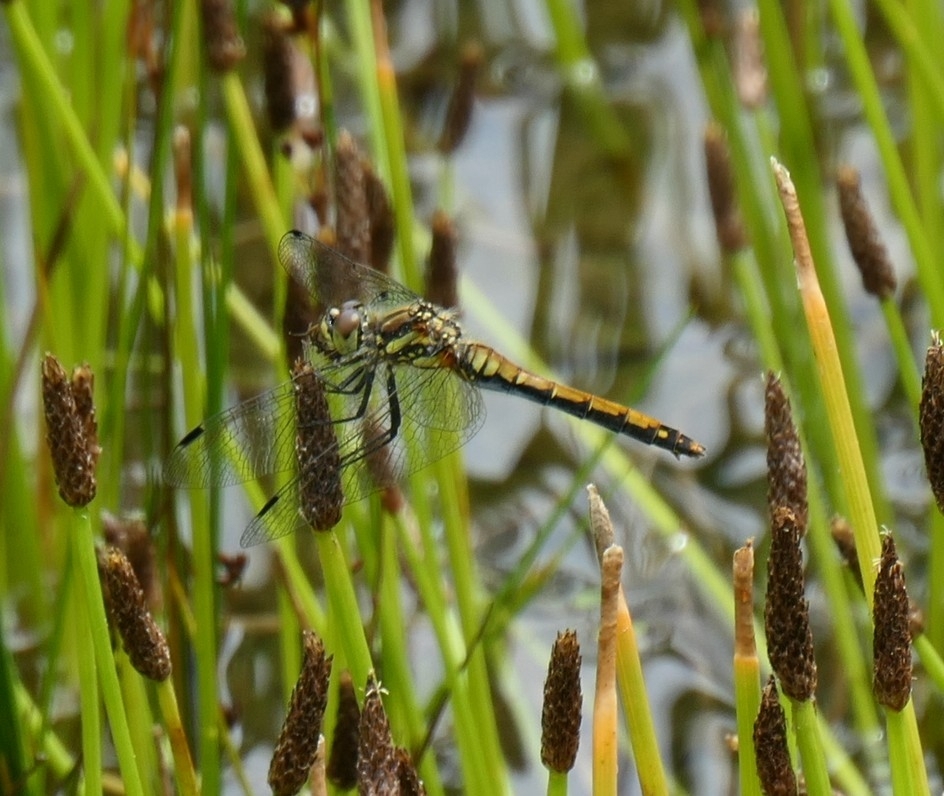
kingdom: Animalia
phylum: Arthropoda
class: Insecta
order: Odonata
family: Libellulidae
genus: Sympetrum
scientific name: Sympetrum danae
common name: Black darter
